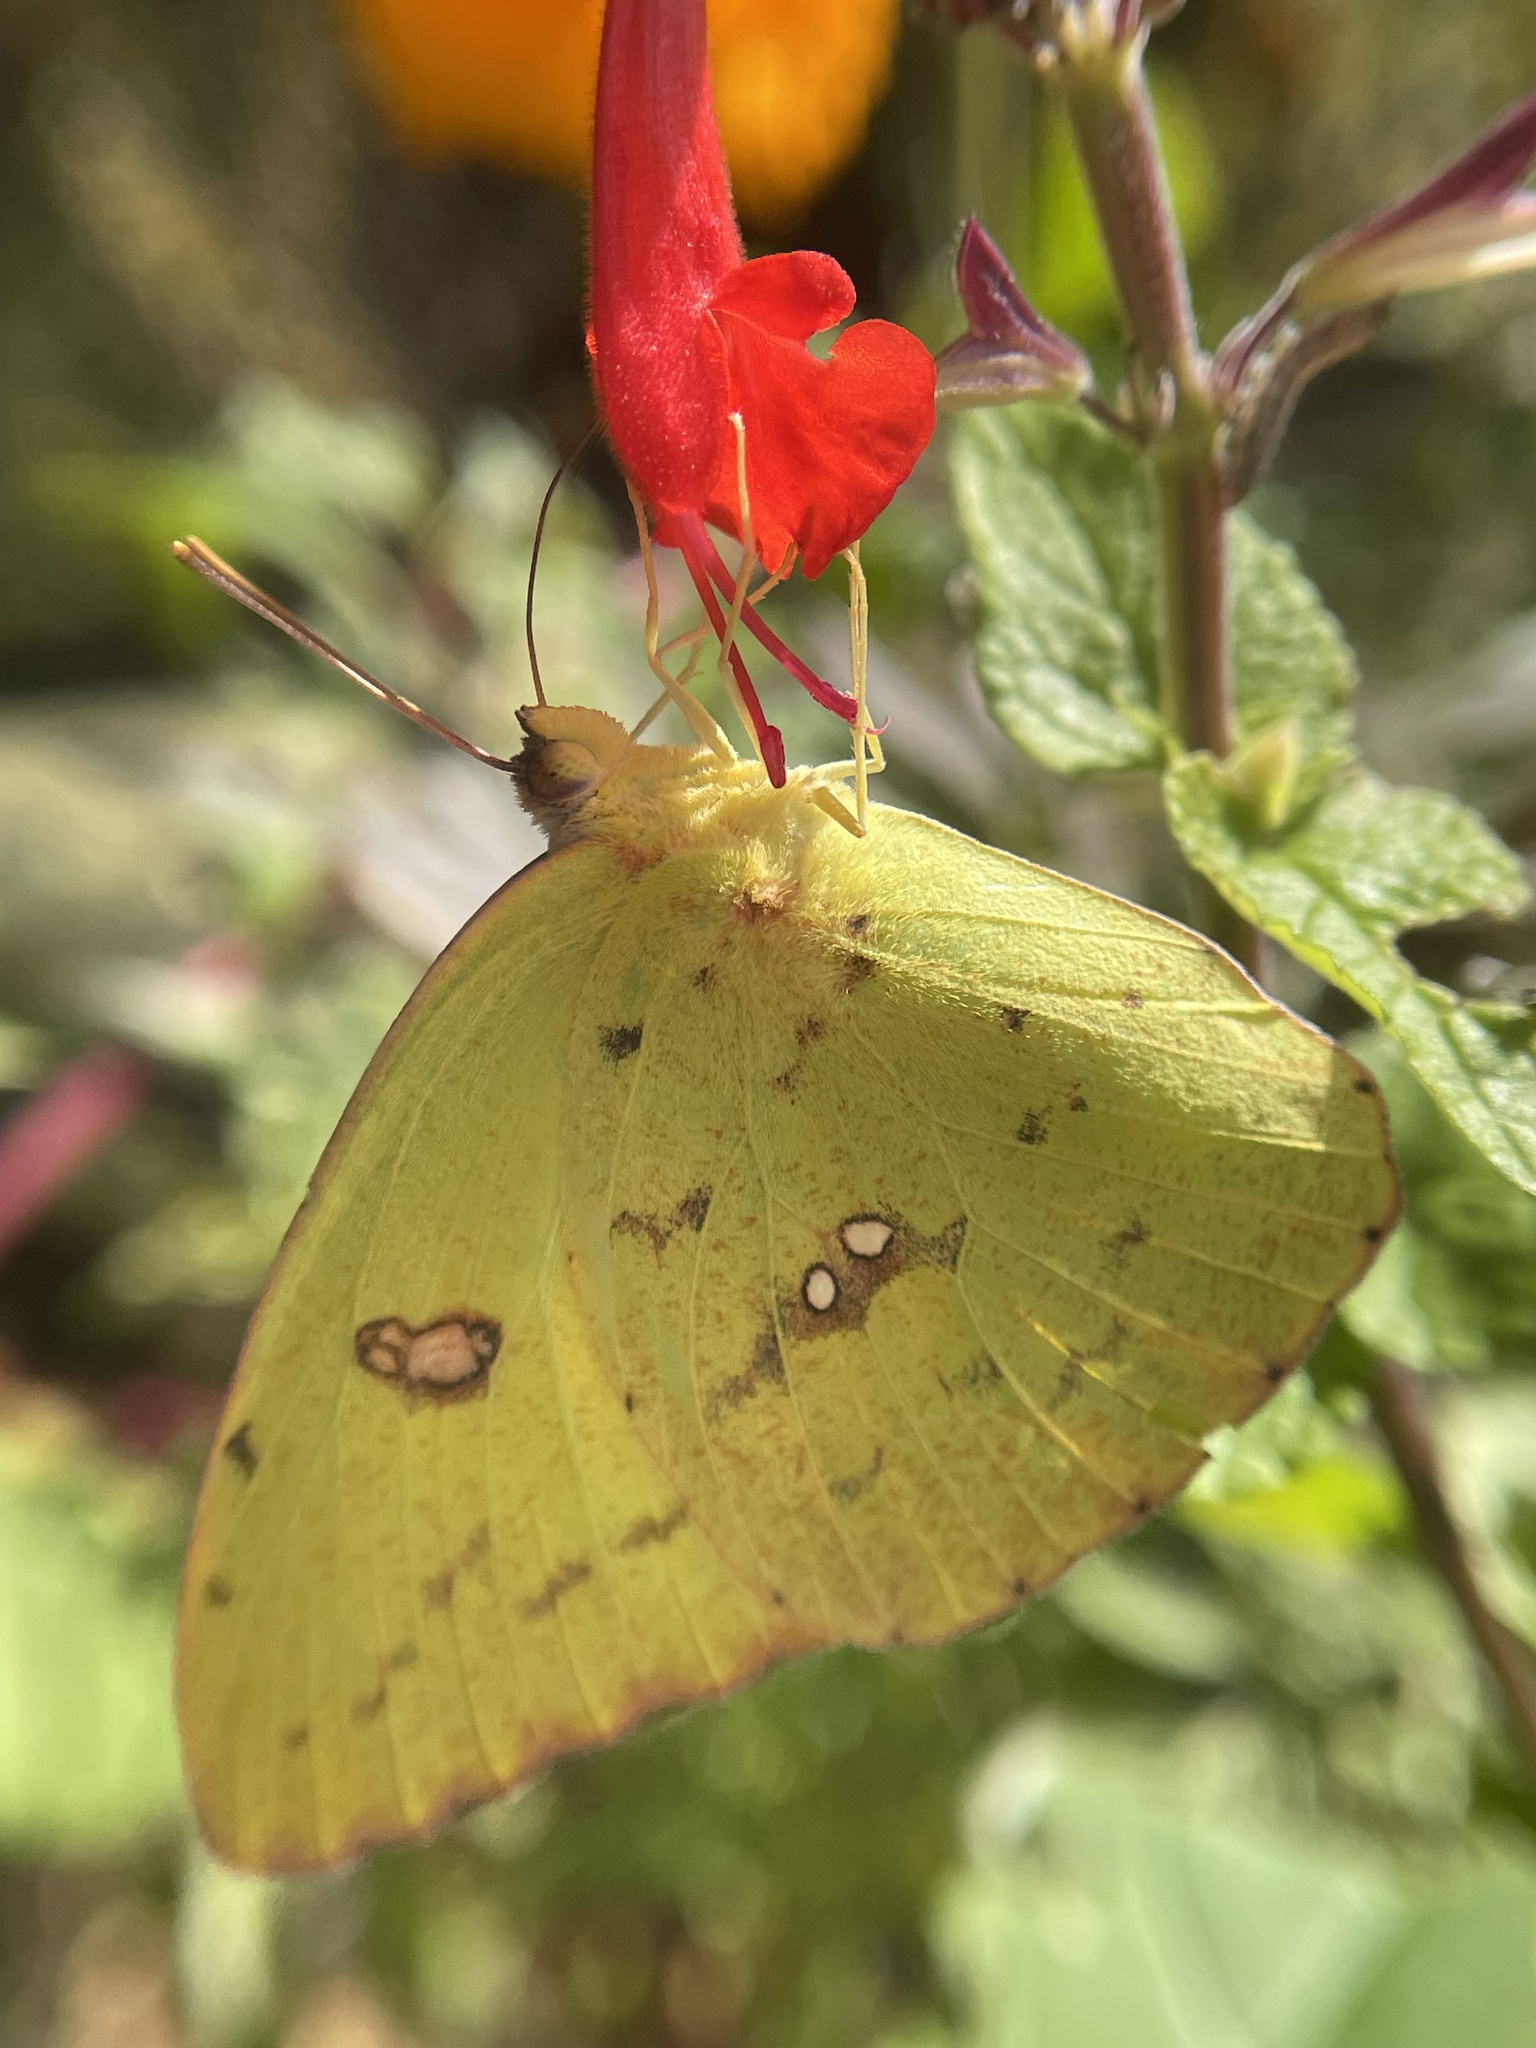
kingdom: Animalia
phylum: Arthropoda
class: Insecta
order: Lepidoptera
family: Pieridae
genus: Phoebis
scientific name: Phoebis sennae
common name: Cloudless sulphur
